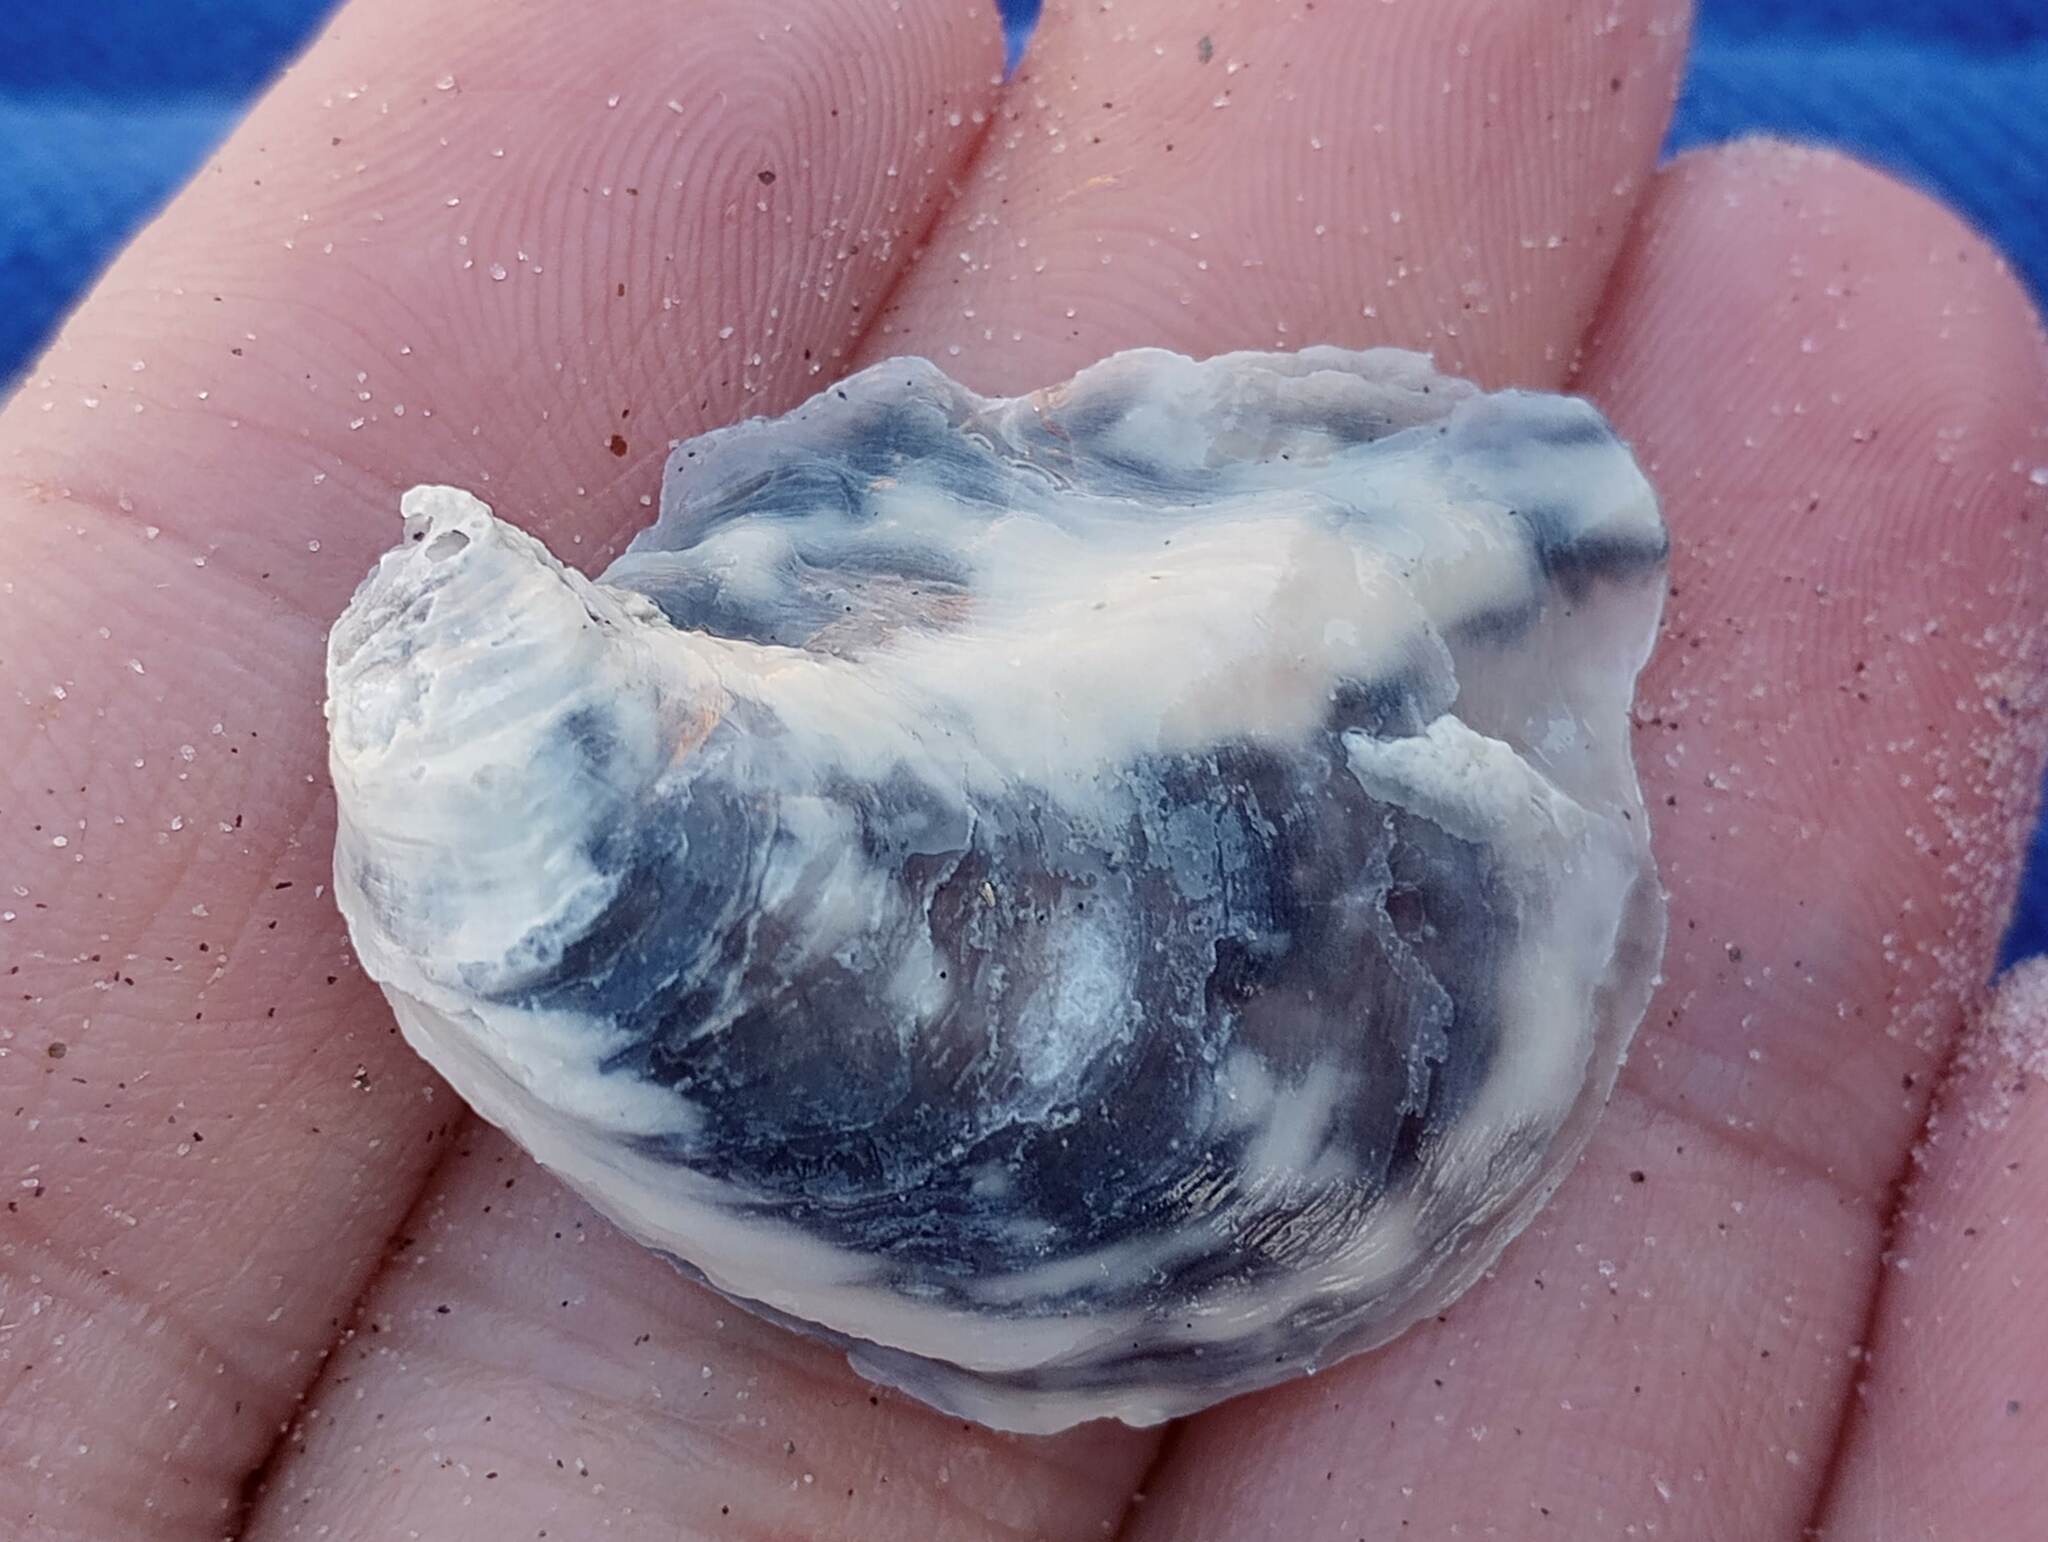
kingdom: Animalia
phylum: Mollusca
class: Bivalvia
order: Ostreida
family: Ostreidae
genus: Ostrea
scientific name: Ostrea lurida
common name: Olympia flat oyster
